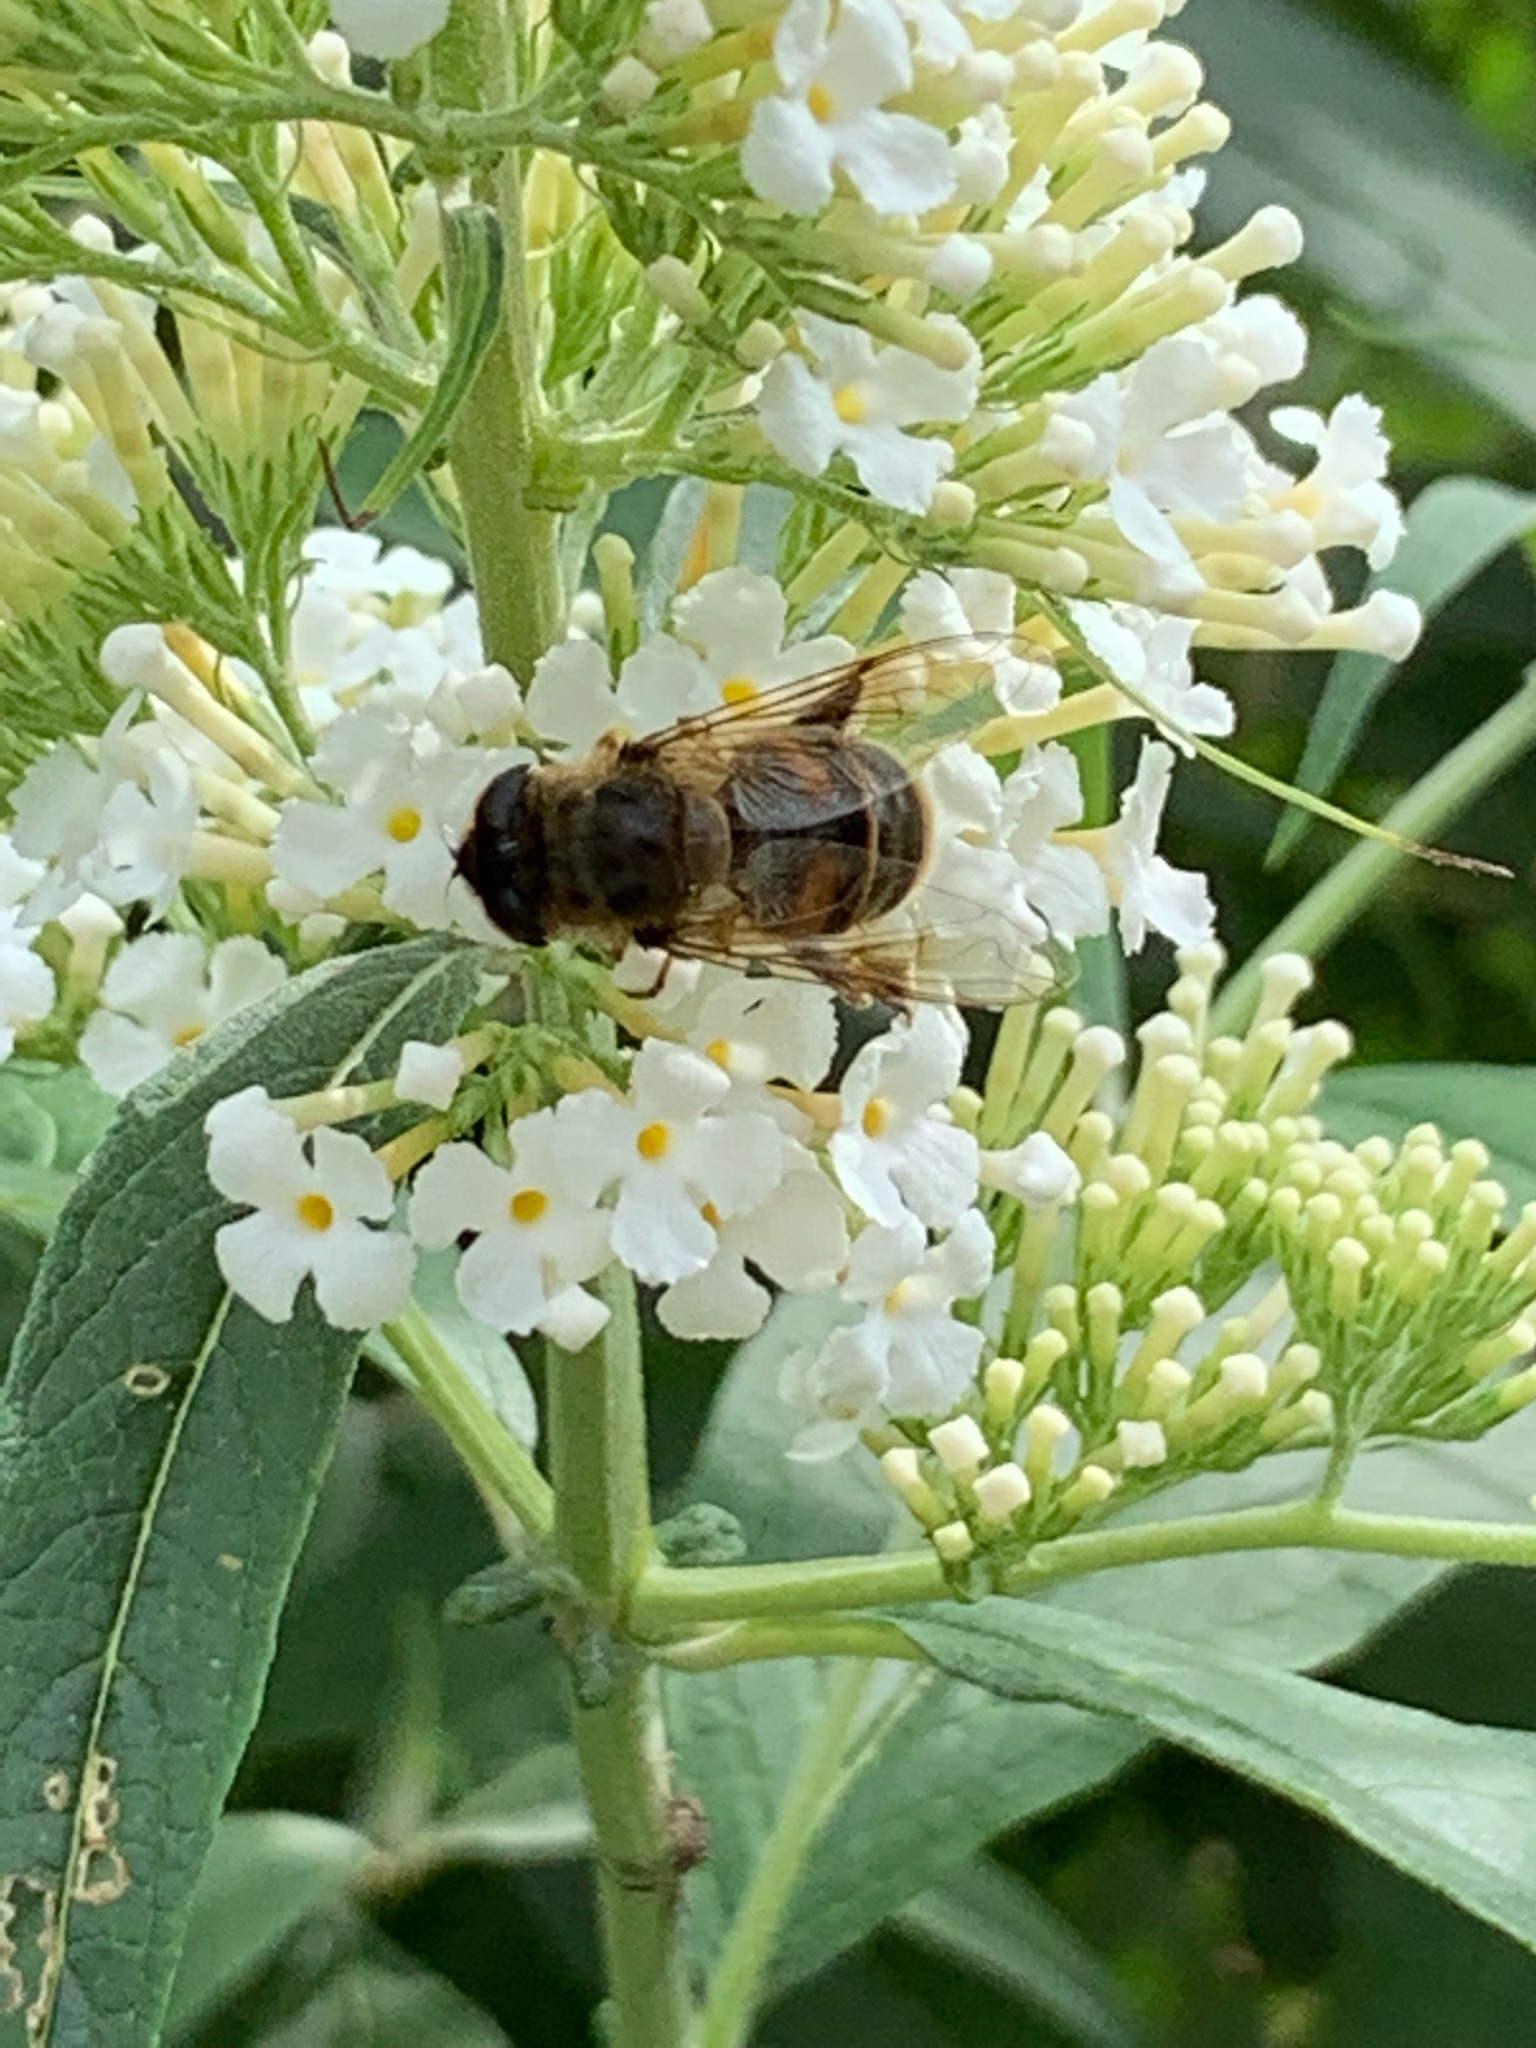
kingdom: Animalia
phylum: Arthropoda
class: Insecta
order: Diptera
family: Syrphidae
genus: Eristalis
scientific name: Eristalis tenax
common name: Drone fly
